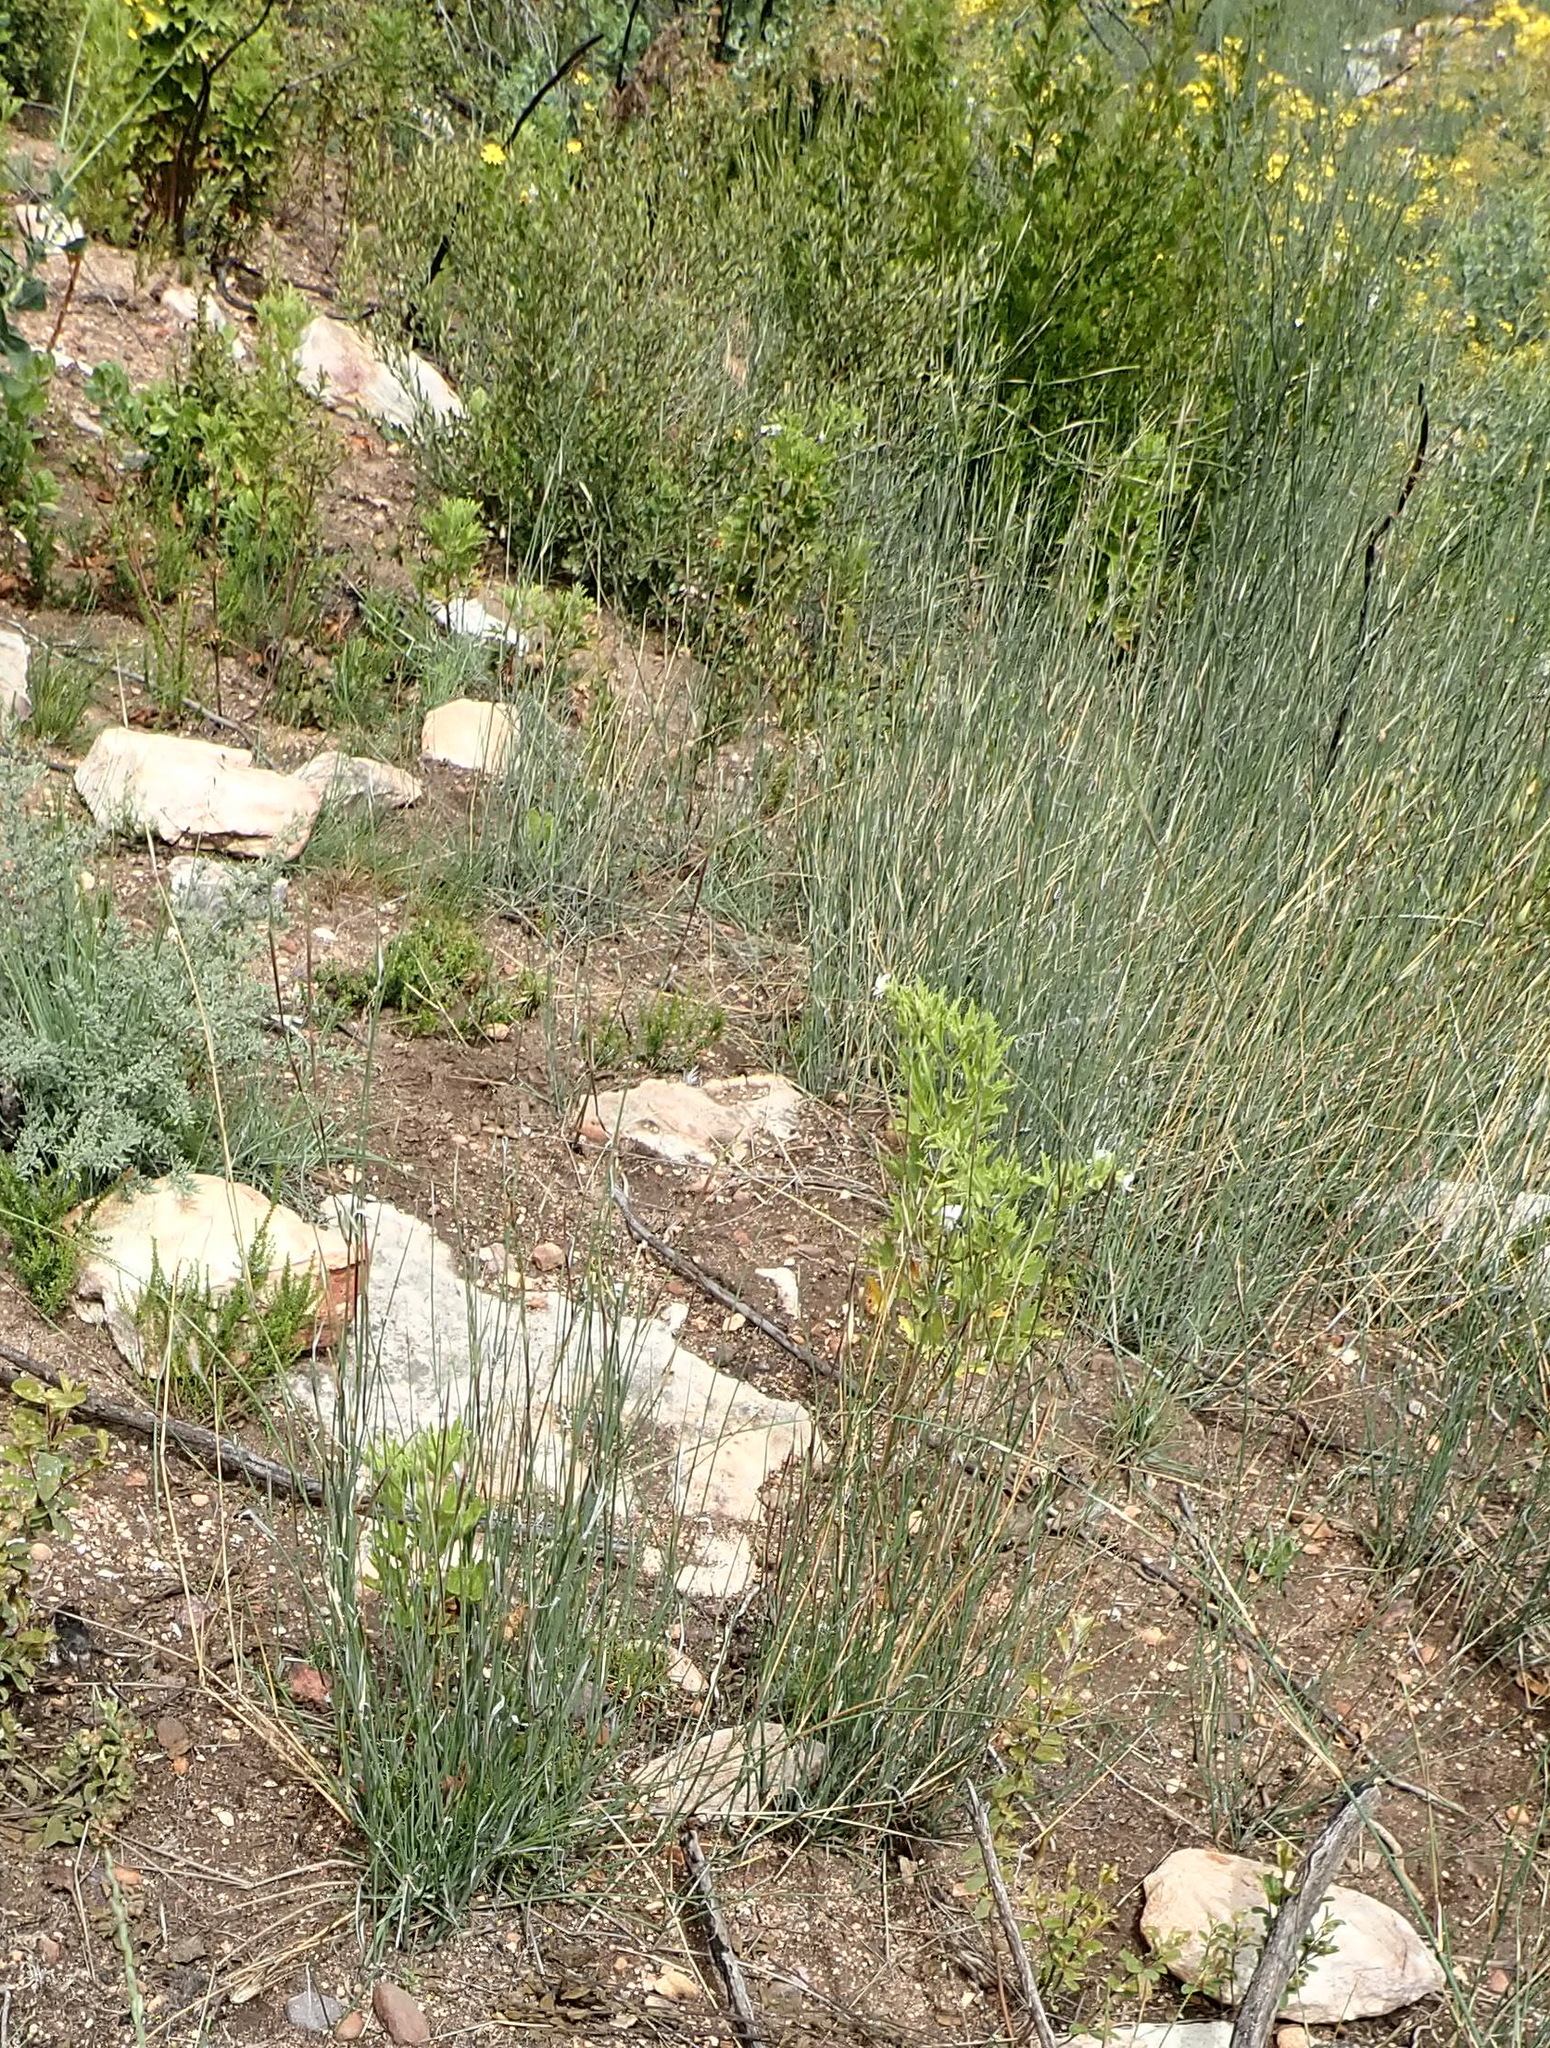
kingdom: Plantae
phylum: Tracheophyta
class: Liliopsida
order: Poales
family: Poaceae
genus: Ehrharta
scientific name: Ehrharta ramosa
